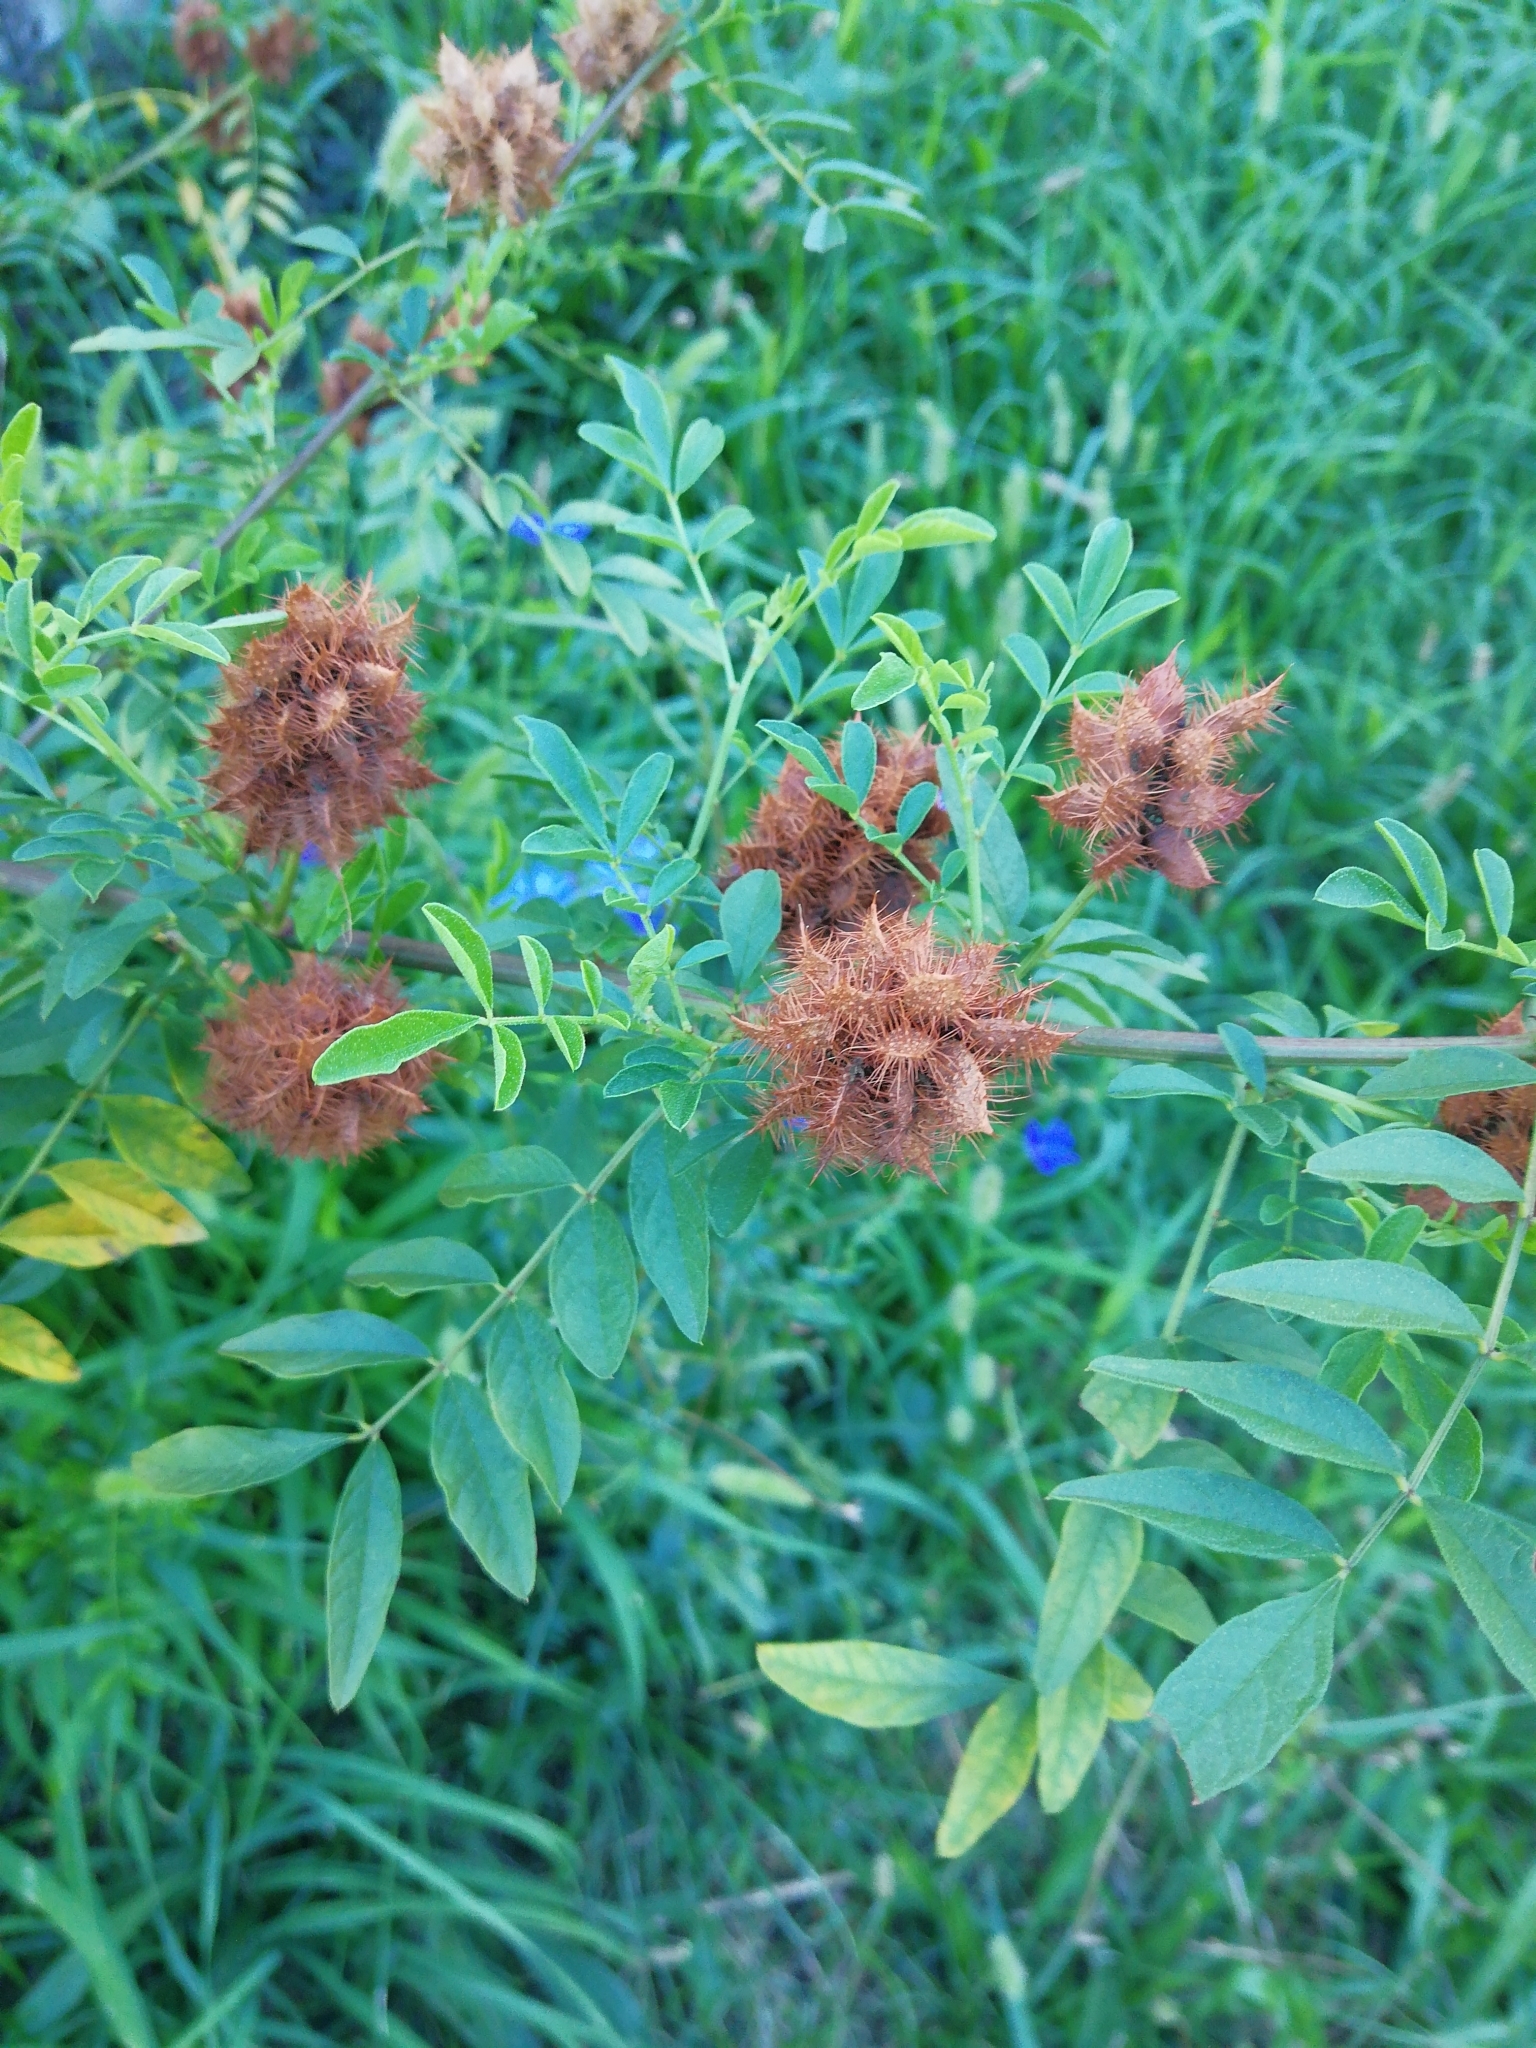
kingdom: Plantae
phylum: Tracheophyta
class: Magnoliopsida
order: Fabales
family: Fabaceae
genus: Glycyrrhiza
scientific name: Glycyrrhiza echinata
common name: German liquorice
